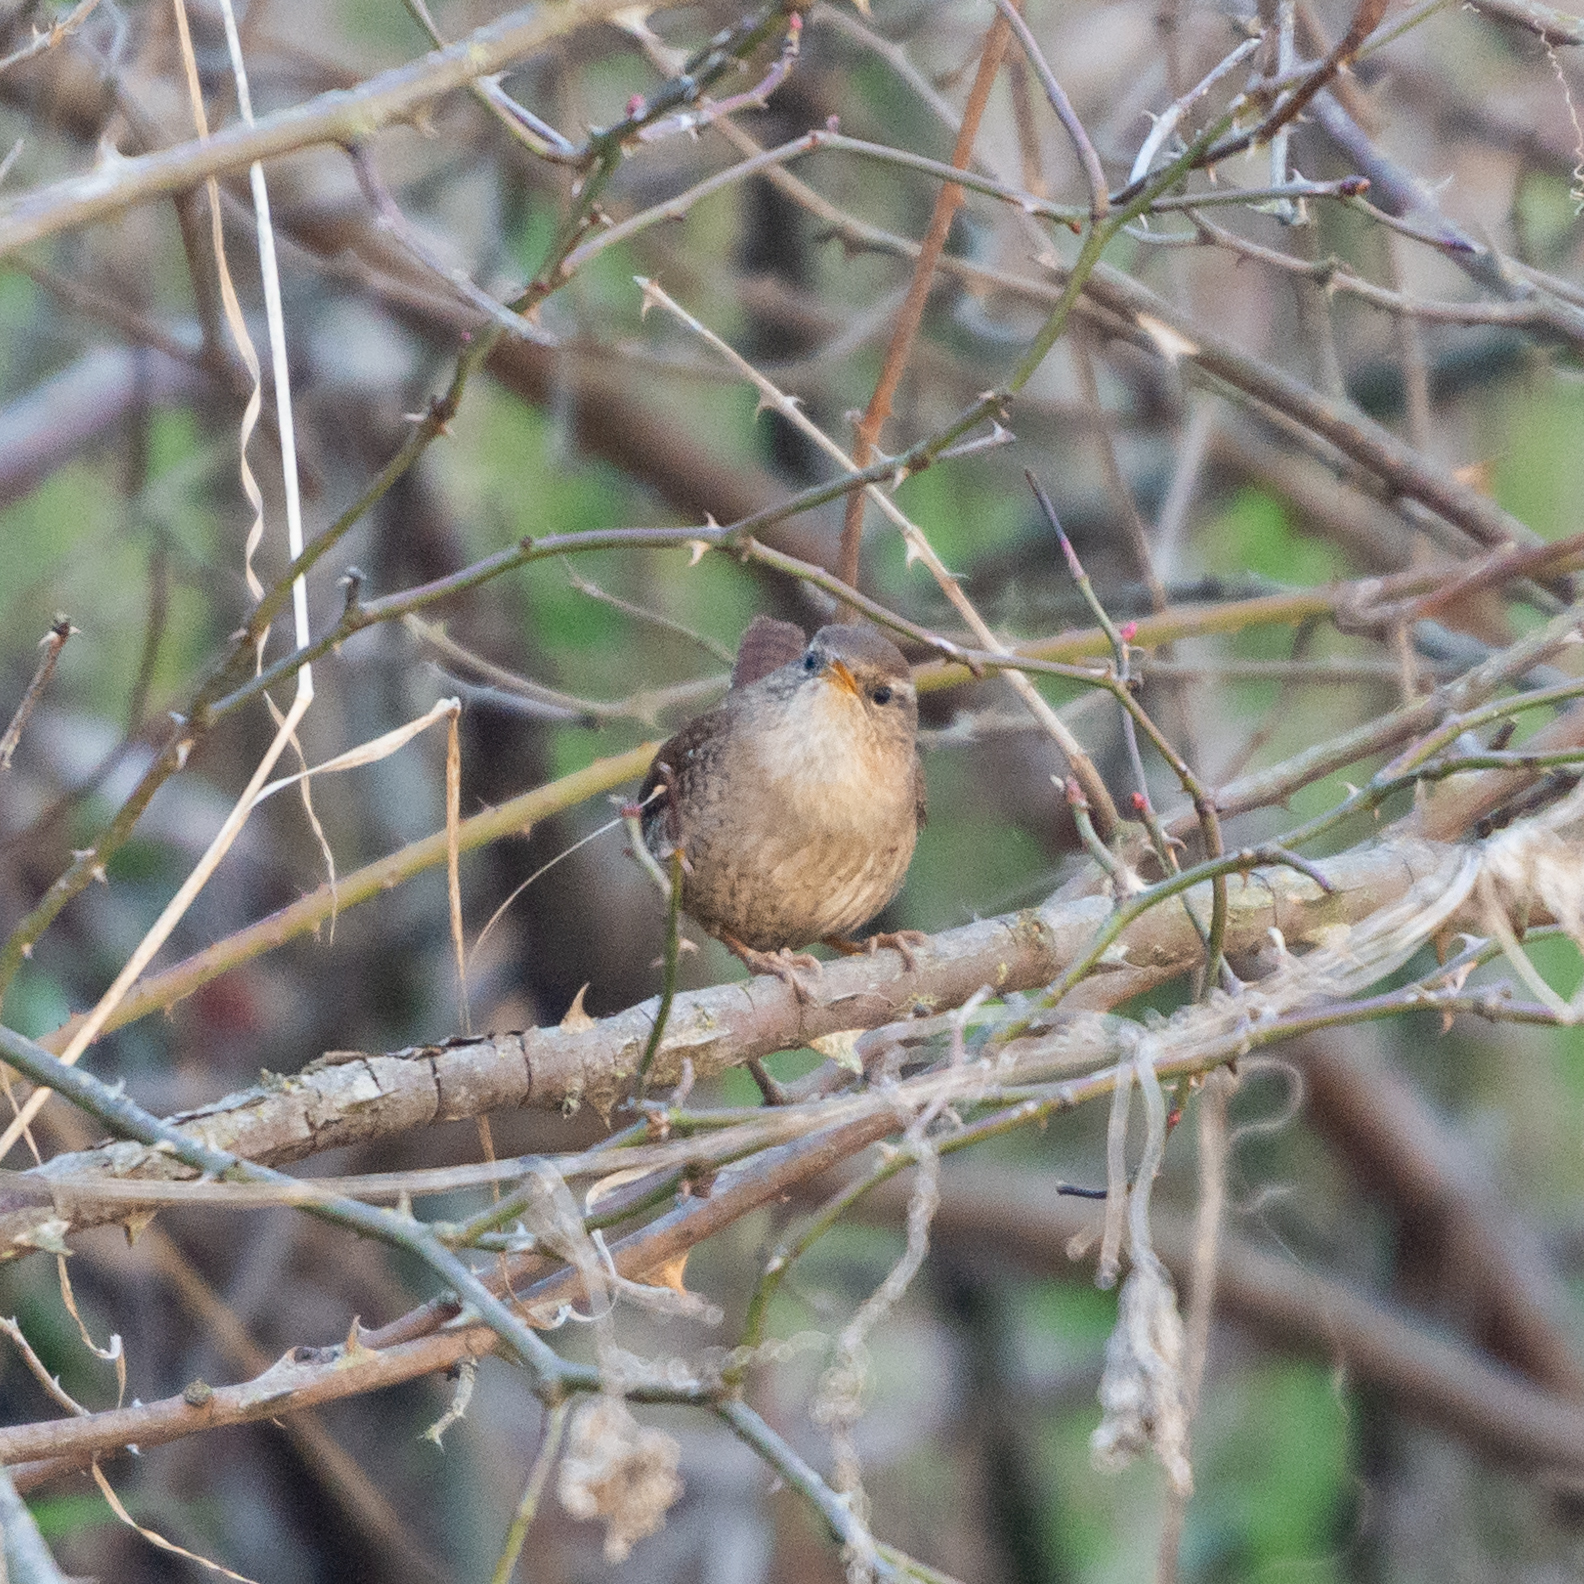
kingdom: Animalia
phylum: Chordata
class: Aves
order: Passeriformes
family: Troglodytidae
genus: Troglodytes
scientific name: Troglodytes troglodytes
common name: Eurasian wren
